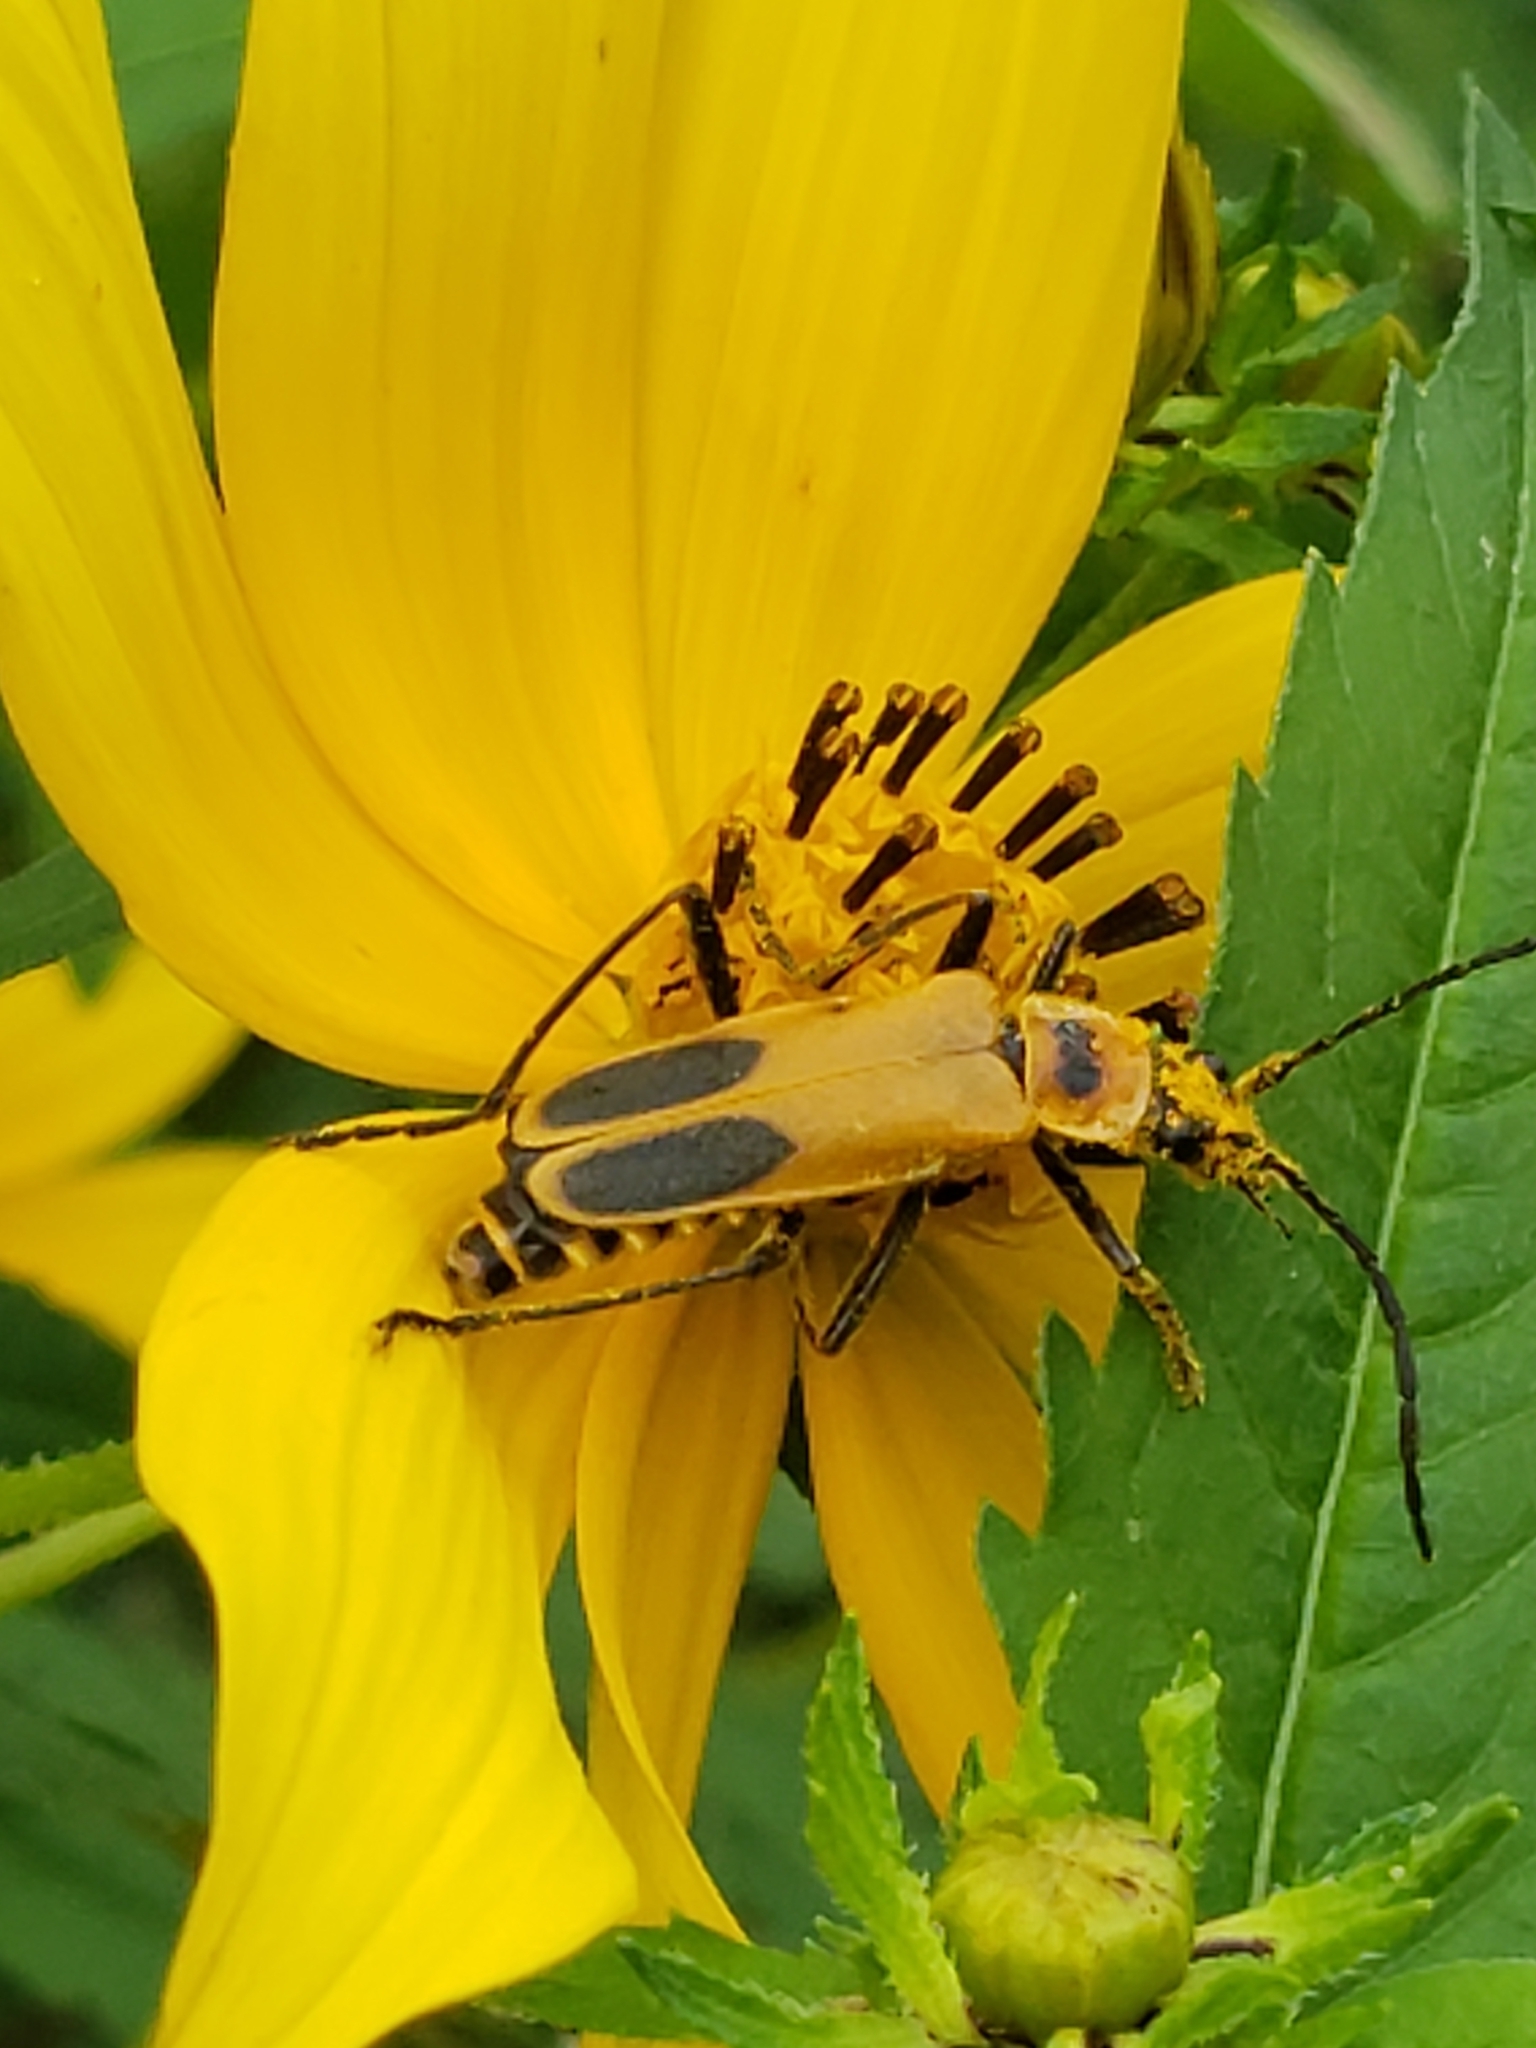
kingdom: Animalia
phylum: Arthropoda
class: Insecta
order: Coleoptera
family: Cantharidae
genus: Chauliognathus
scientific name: Chauliognathus pensylvanicus
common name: Goldenrod soldier beetle
